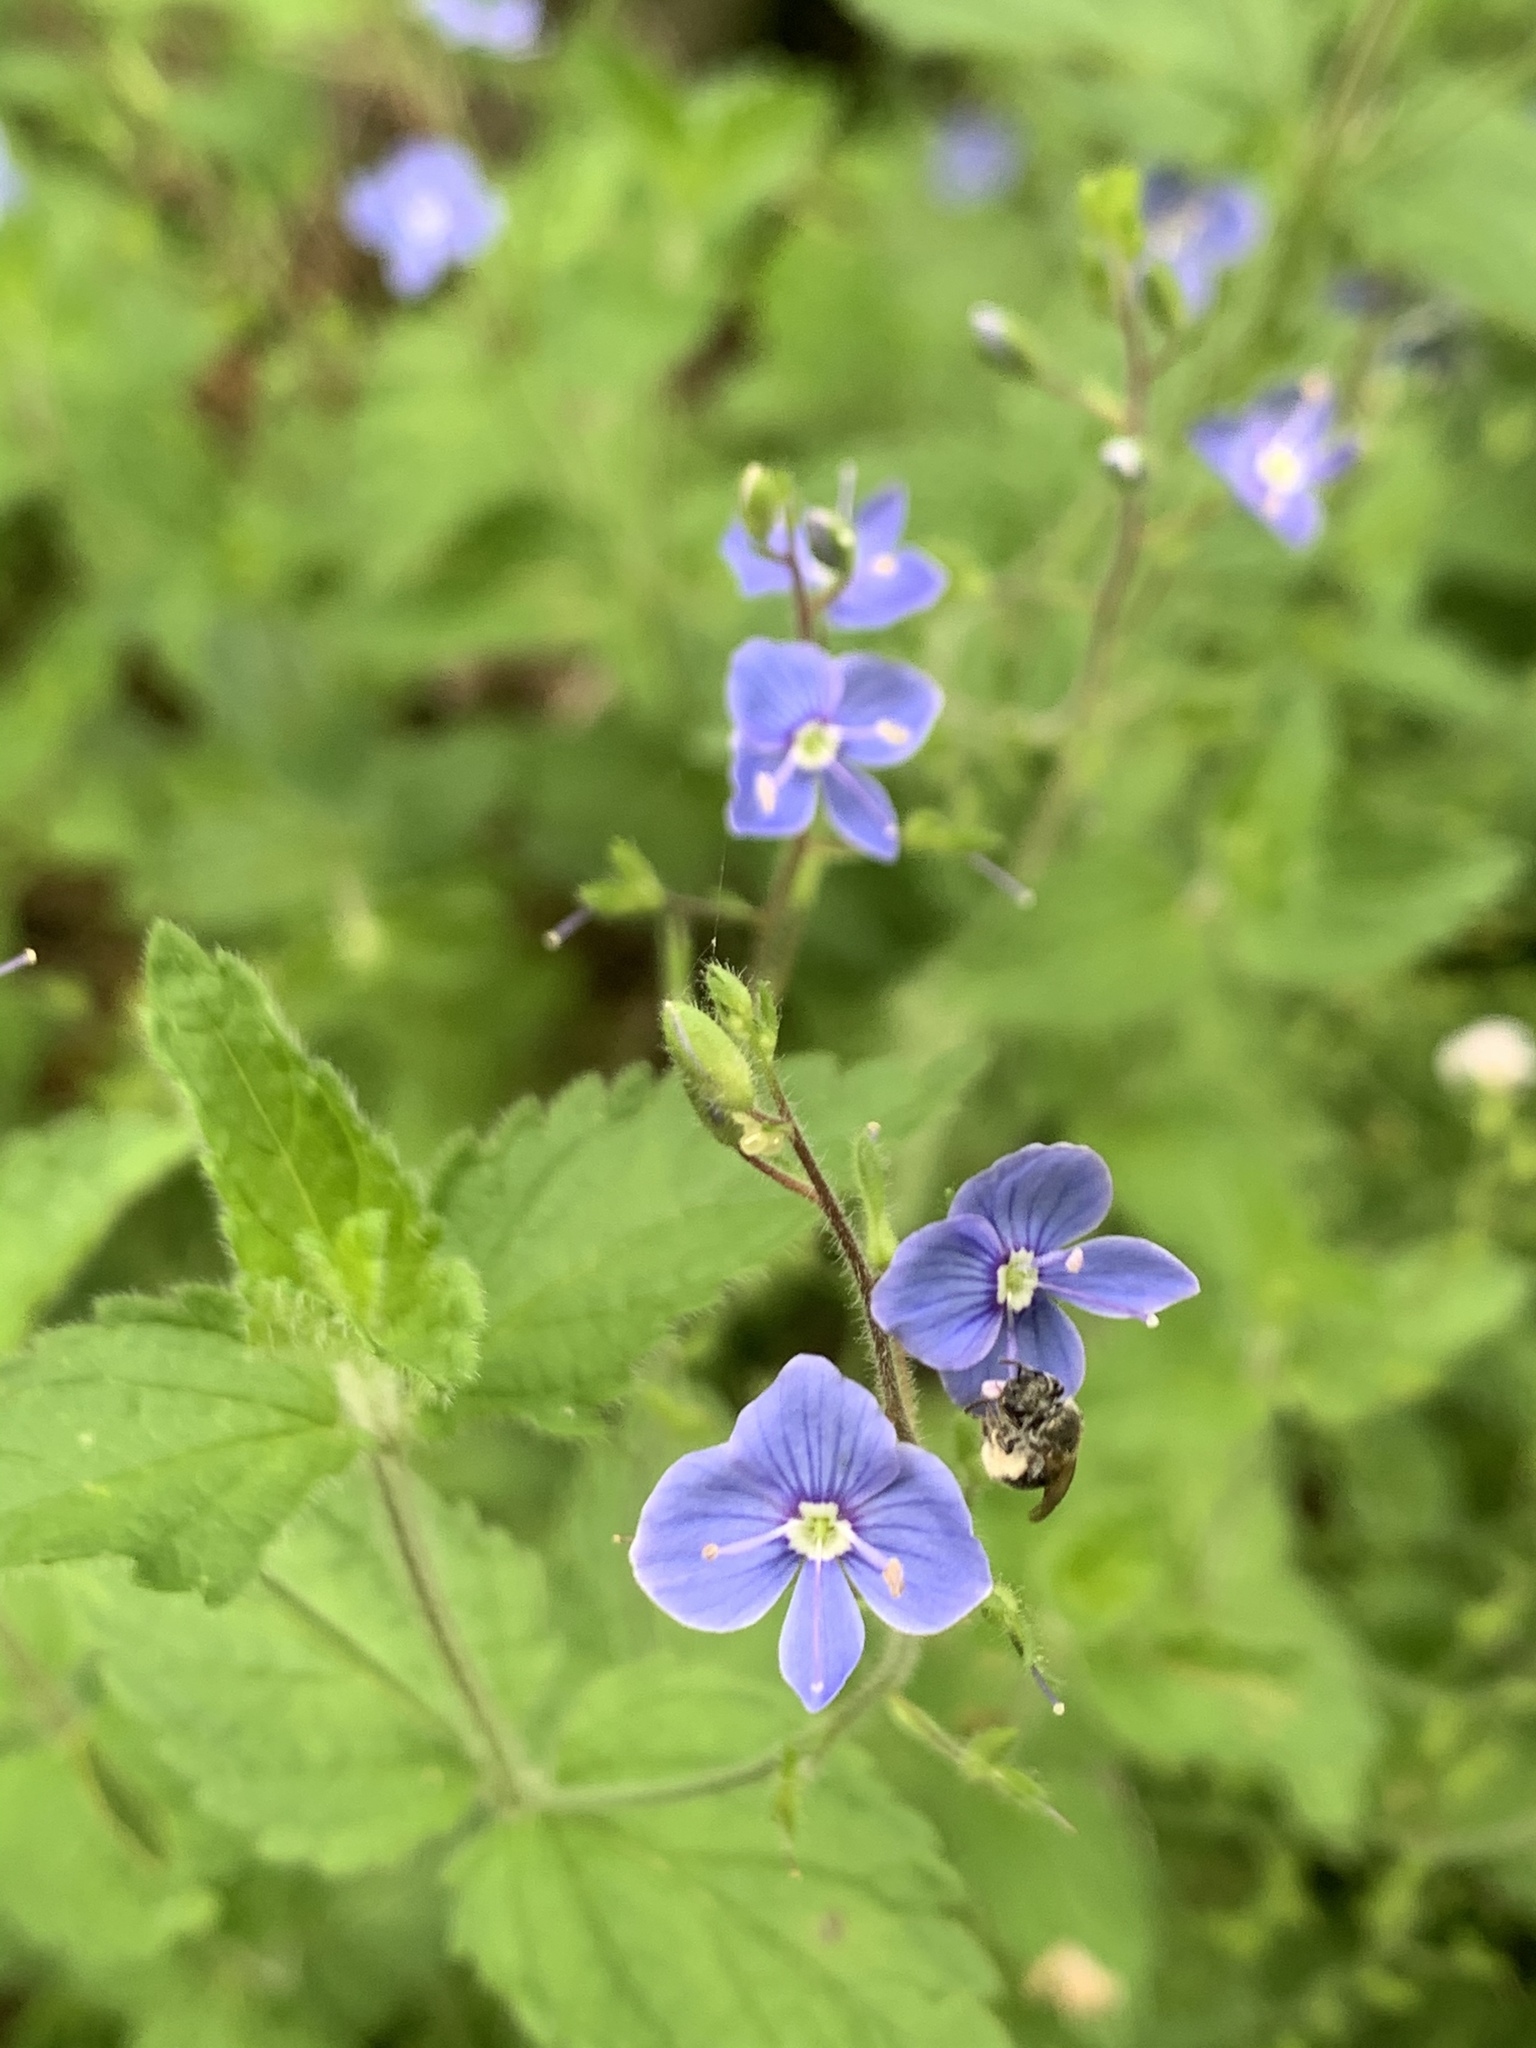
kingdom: Plantae
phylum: Tracheophyta
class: Magnoliopsida
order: Lamiales
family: Plantaginaceae
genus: Veronica
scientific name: Veronica chamaedrys
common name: Germander speedwell
